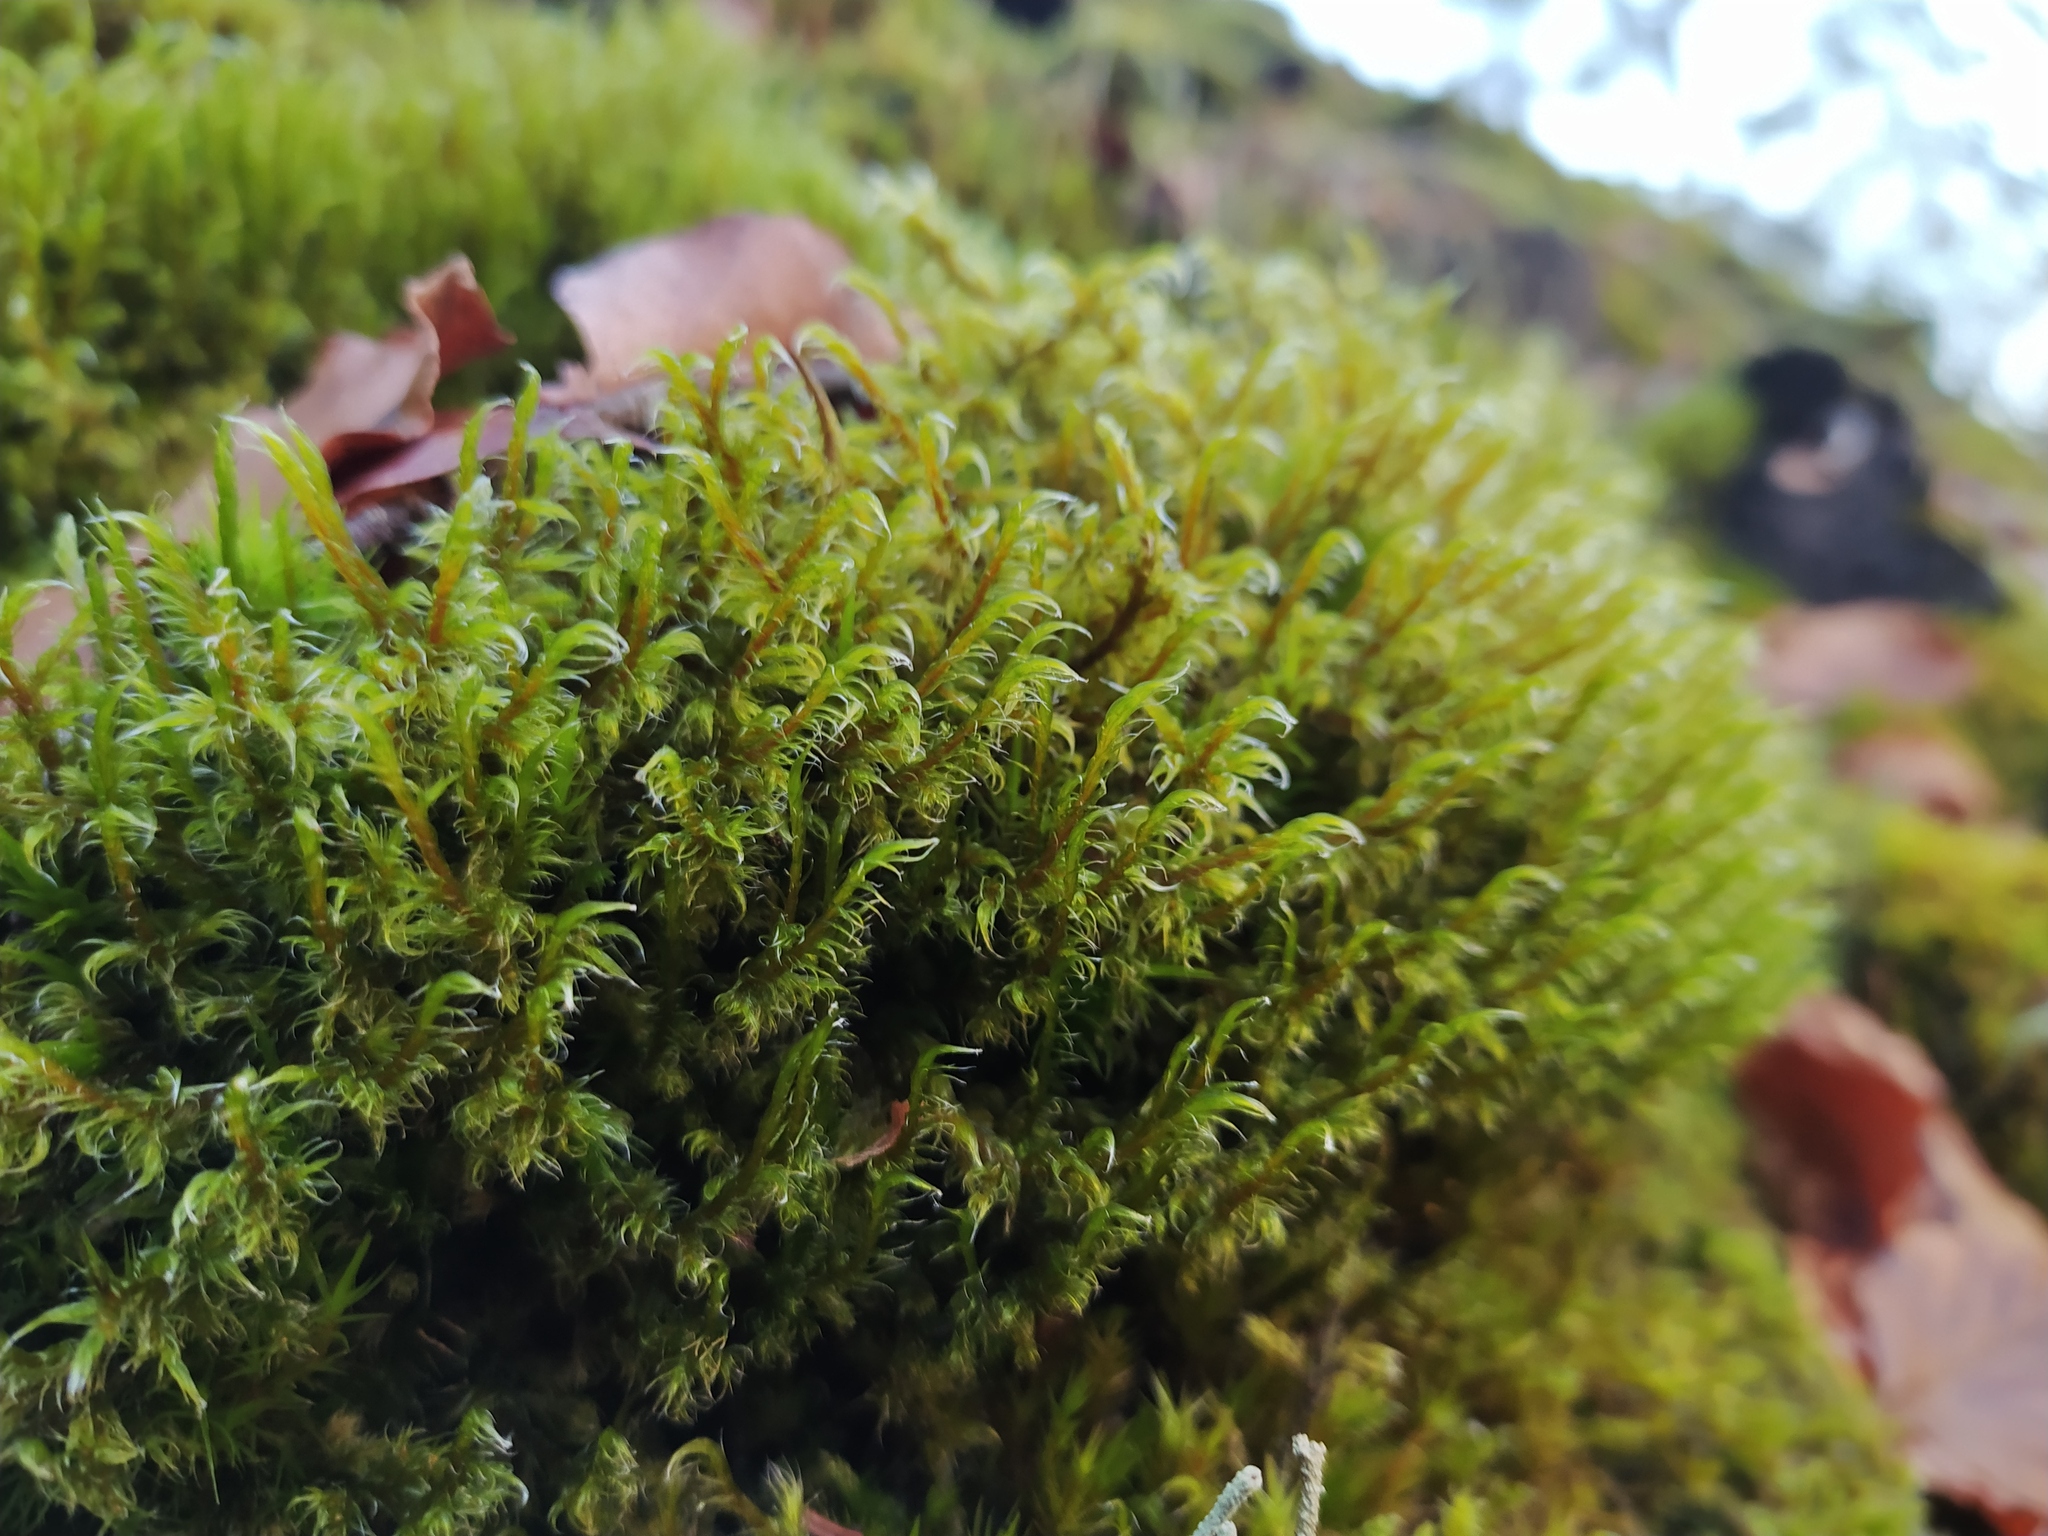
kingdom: Plantae
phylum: Bryophyta
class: Bryopsida
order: Grimmiales
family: Grimmiaceae
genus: Racomitrium
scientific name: Racomitrium lanuginosum
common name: Hoary rock moss
